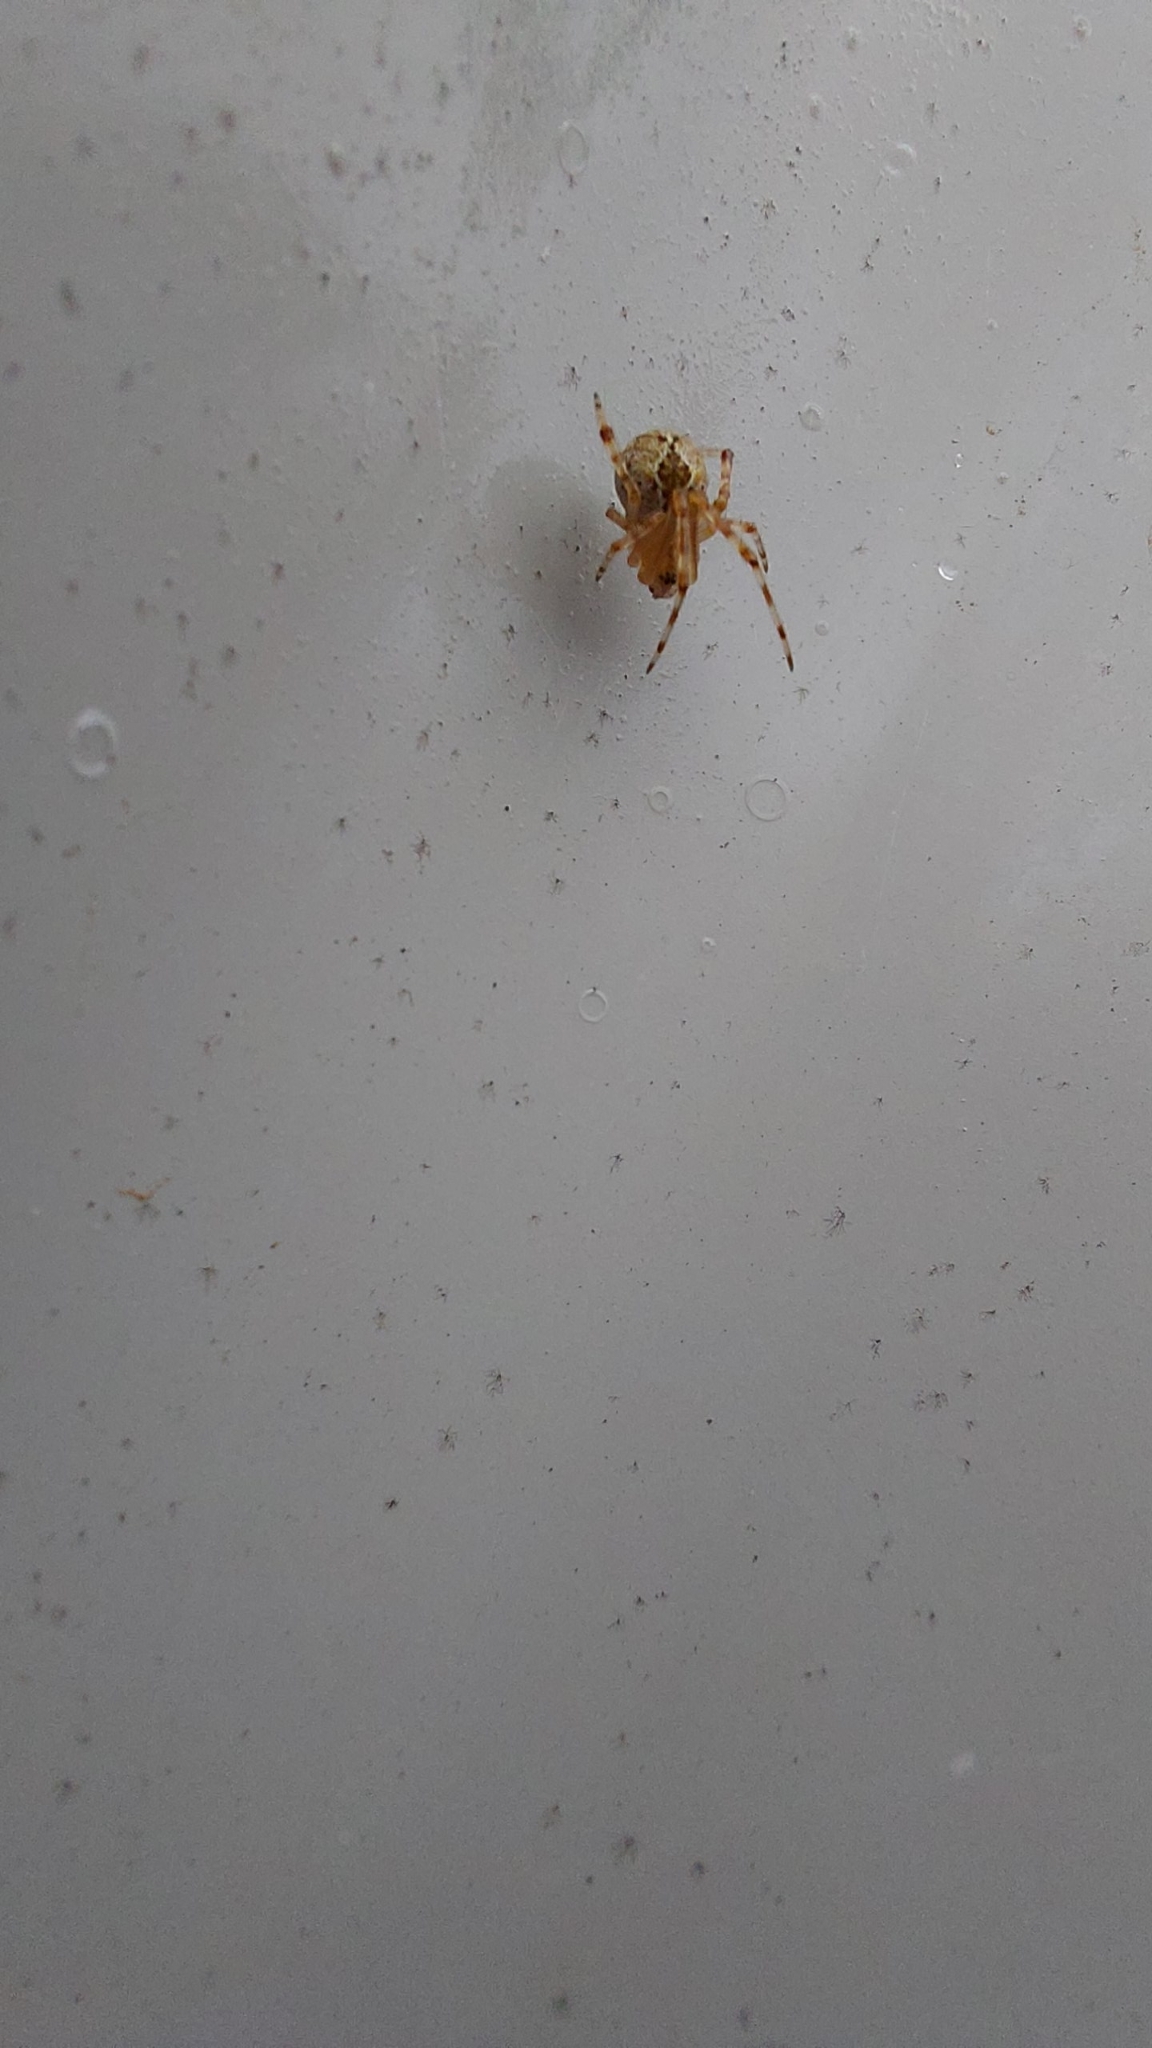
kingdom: Animalia
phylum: Arthropoda
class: Arachnida
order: Araneae
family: Theridiidae
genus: Cryptachaea
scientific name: Cryptachaea veruculata
